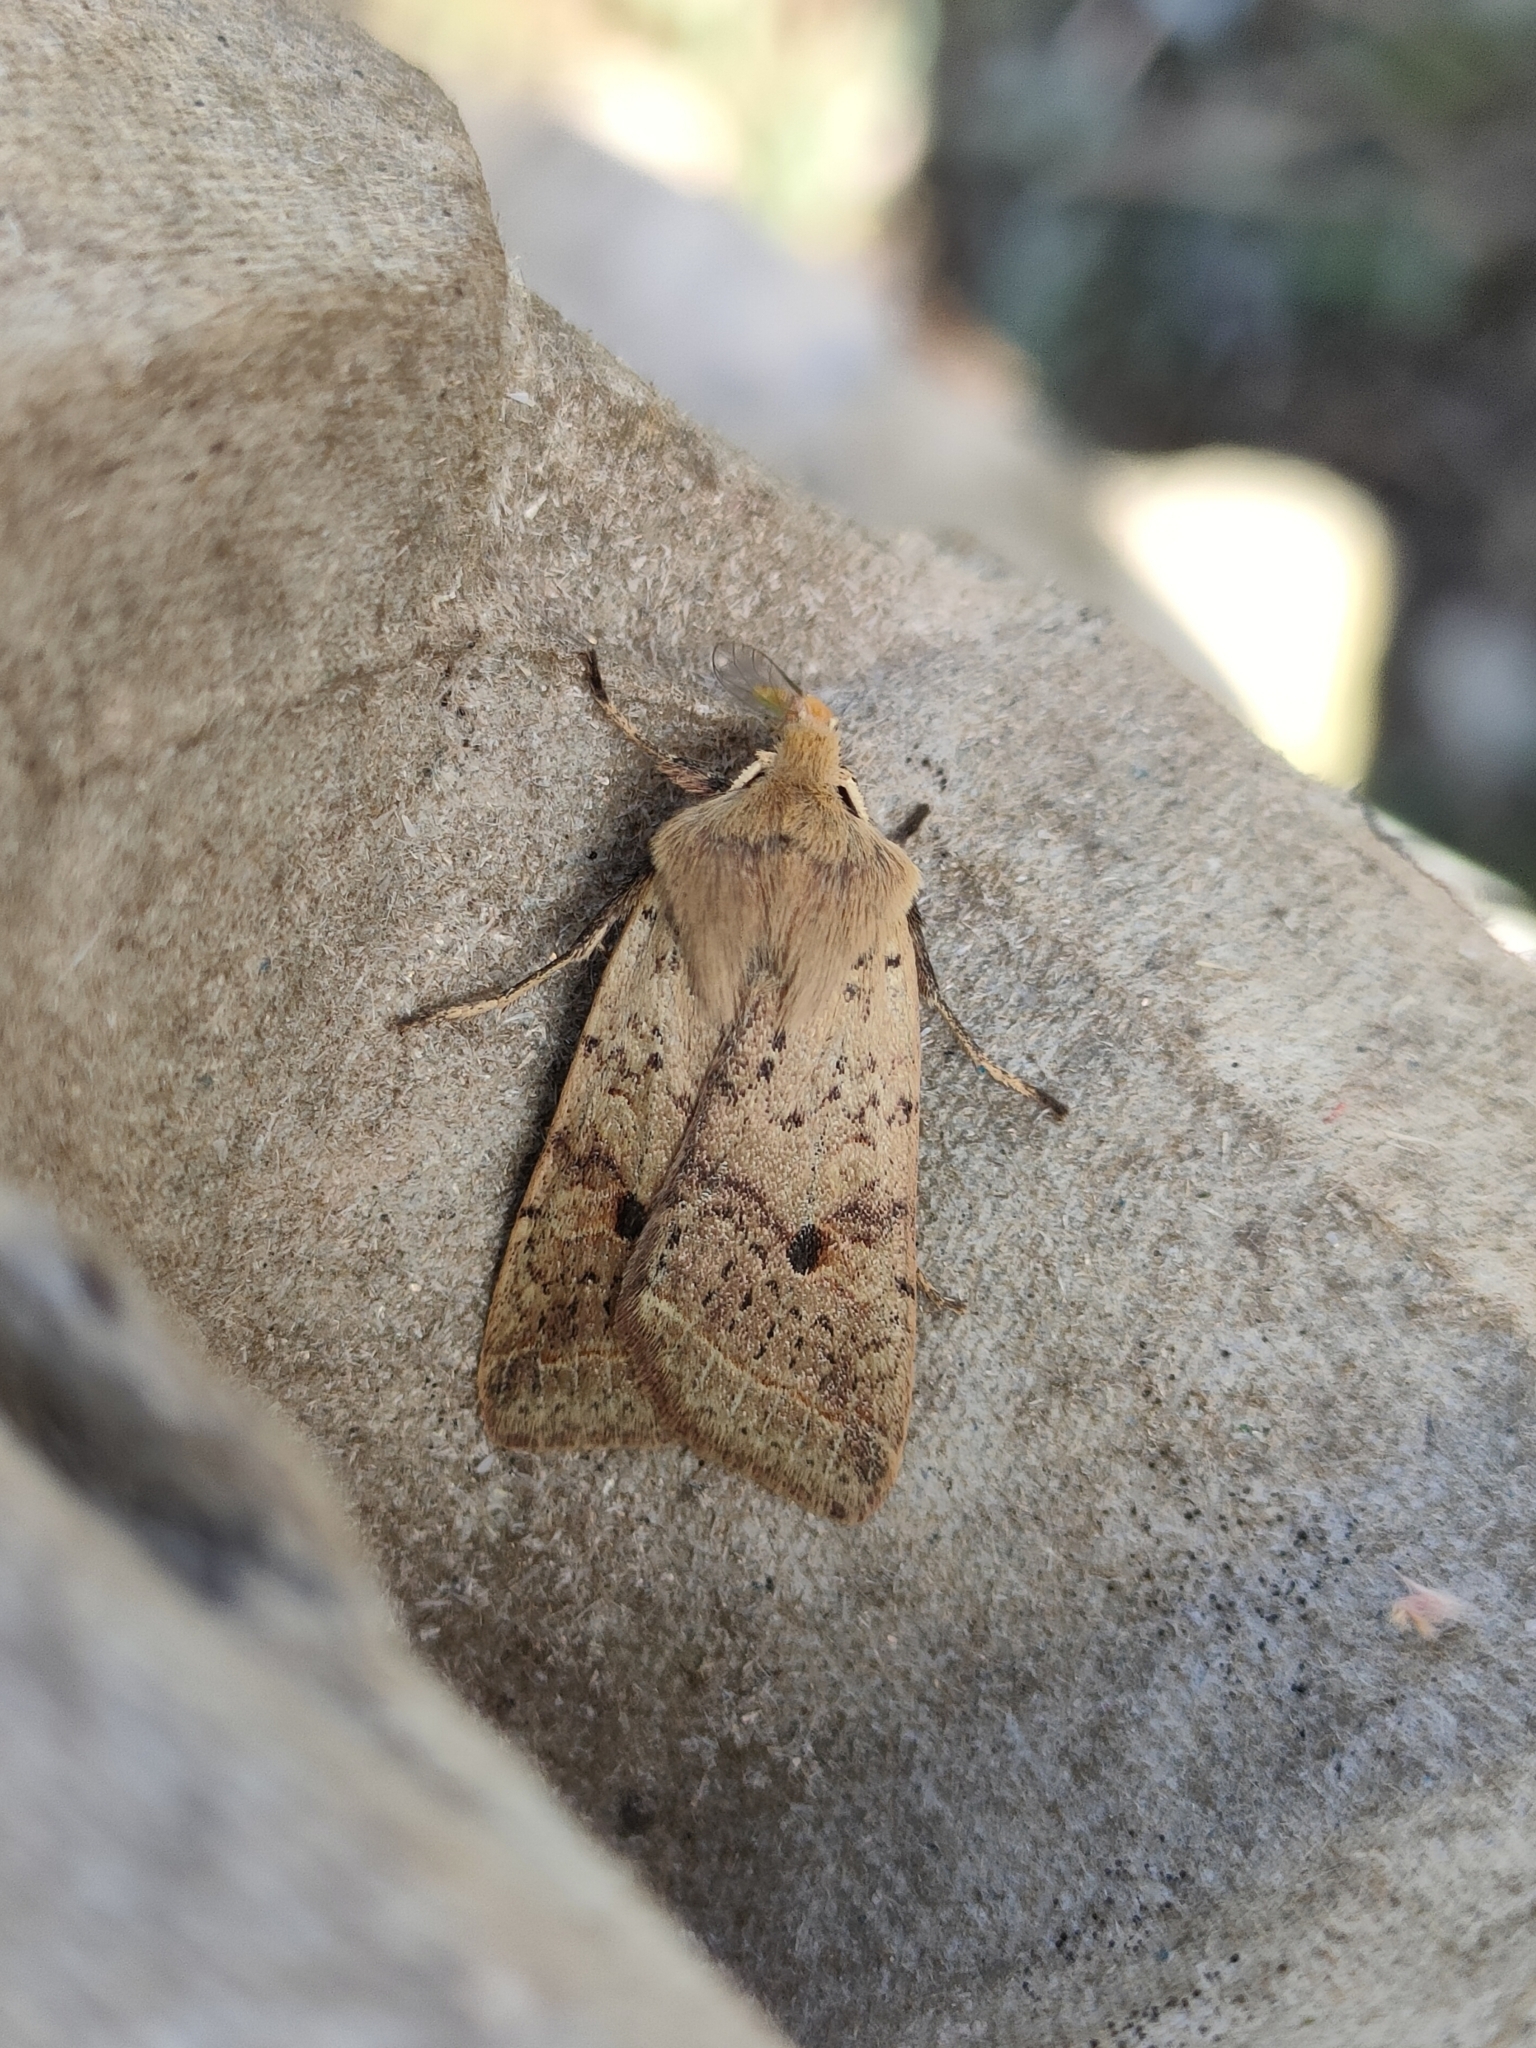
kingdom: Animalia
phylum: Arthropoda
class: Insecta
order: Lepidoptera
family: Noctuidae
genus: Agrochola
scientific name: Agrochola blidaensis
